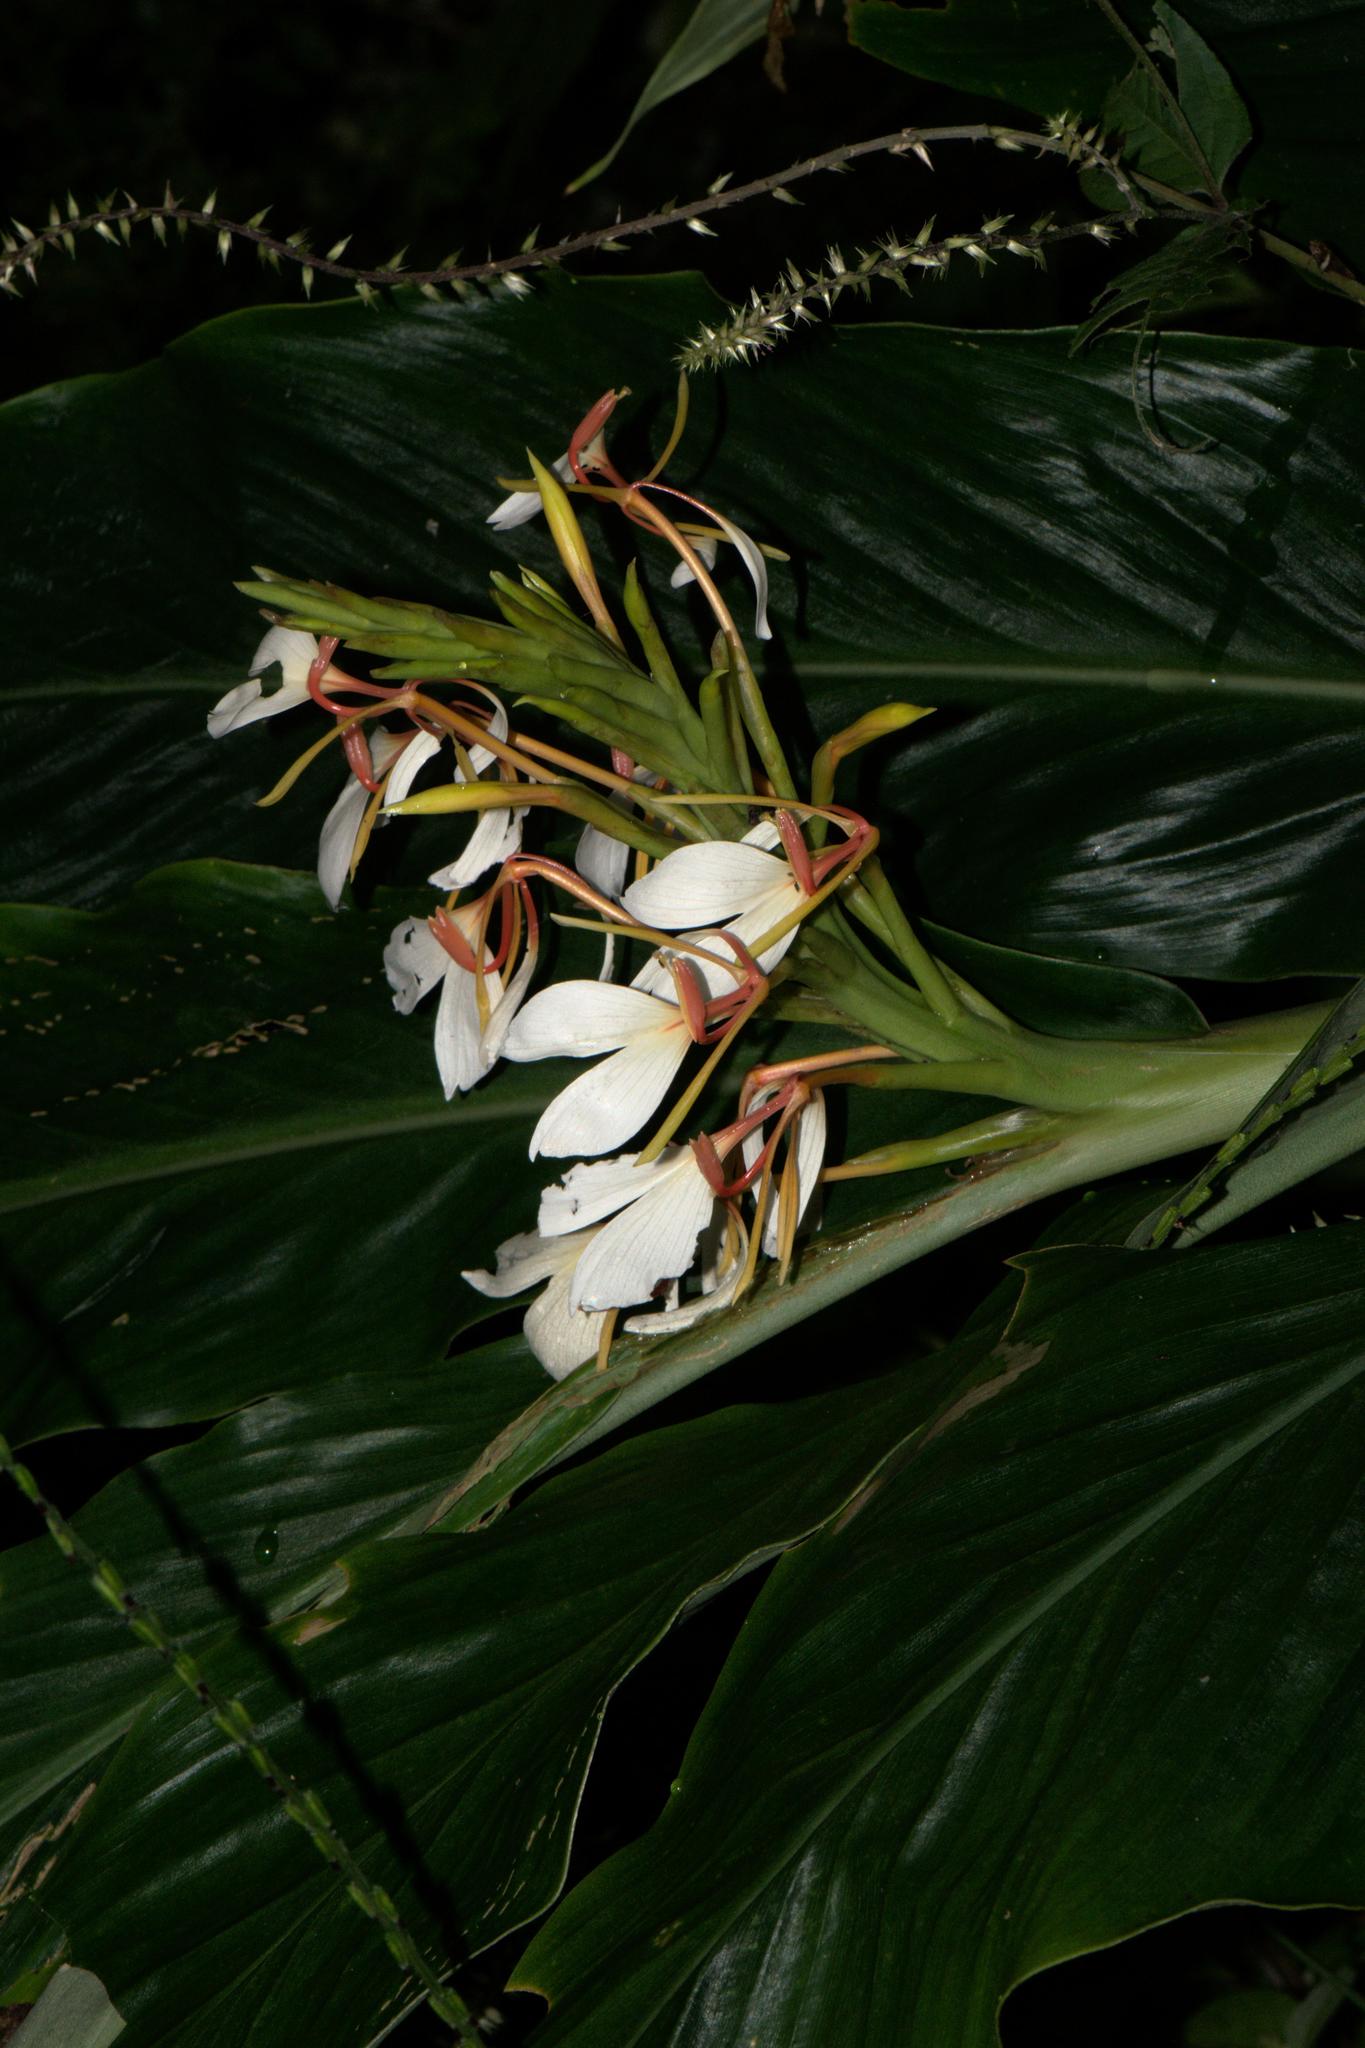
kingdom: Plantae
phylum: Tracheophyta
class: Liliopsida
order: Zingiberales
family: Zingiberaceae
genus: Hedychium
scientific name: Hedychium spicatum
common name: Spiked ginger-lily
